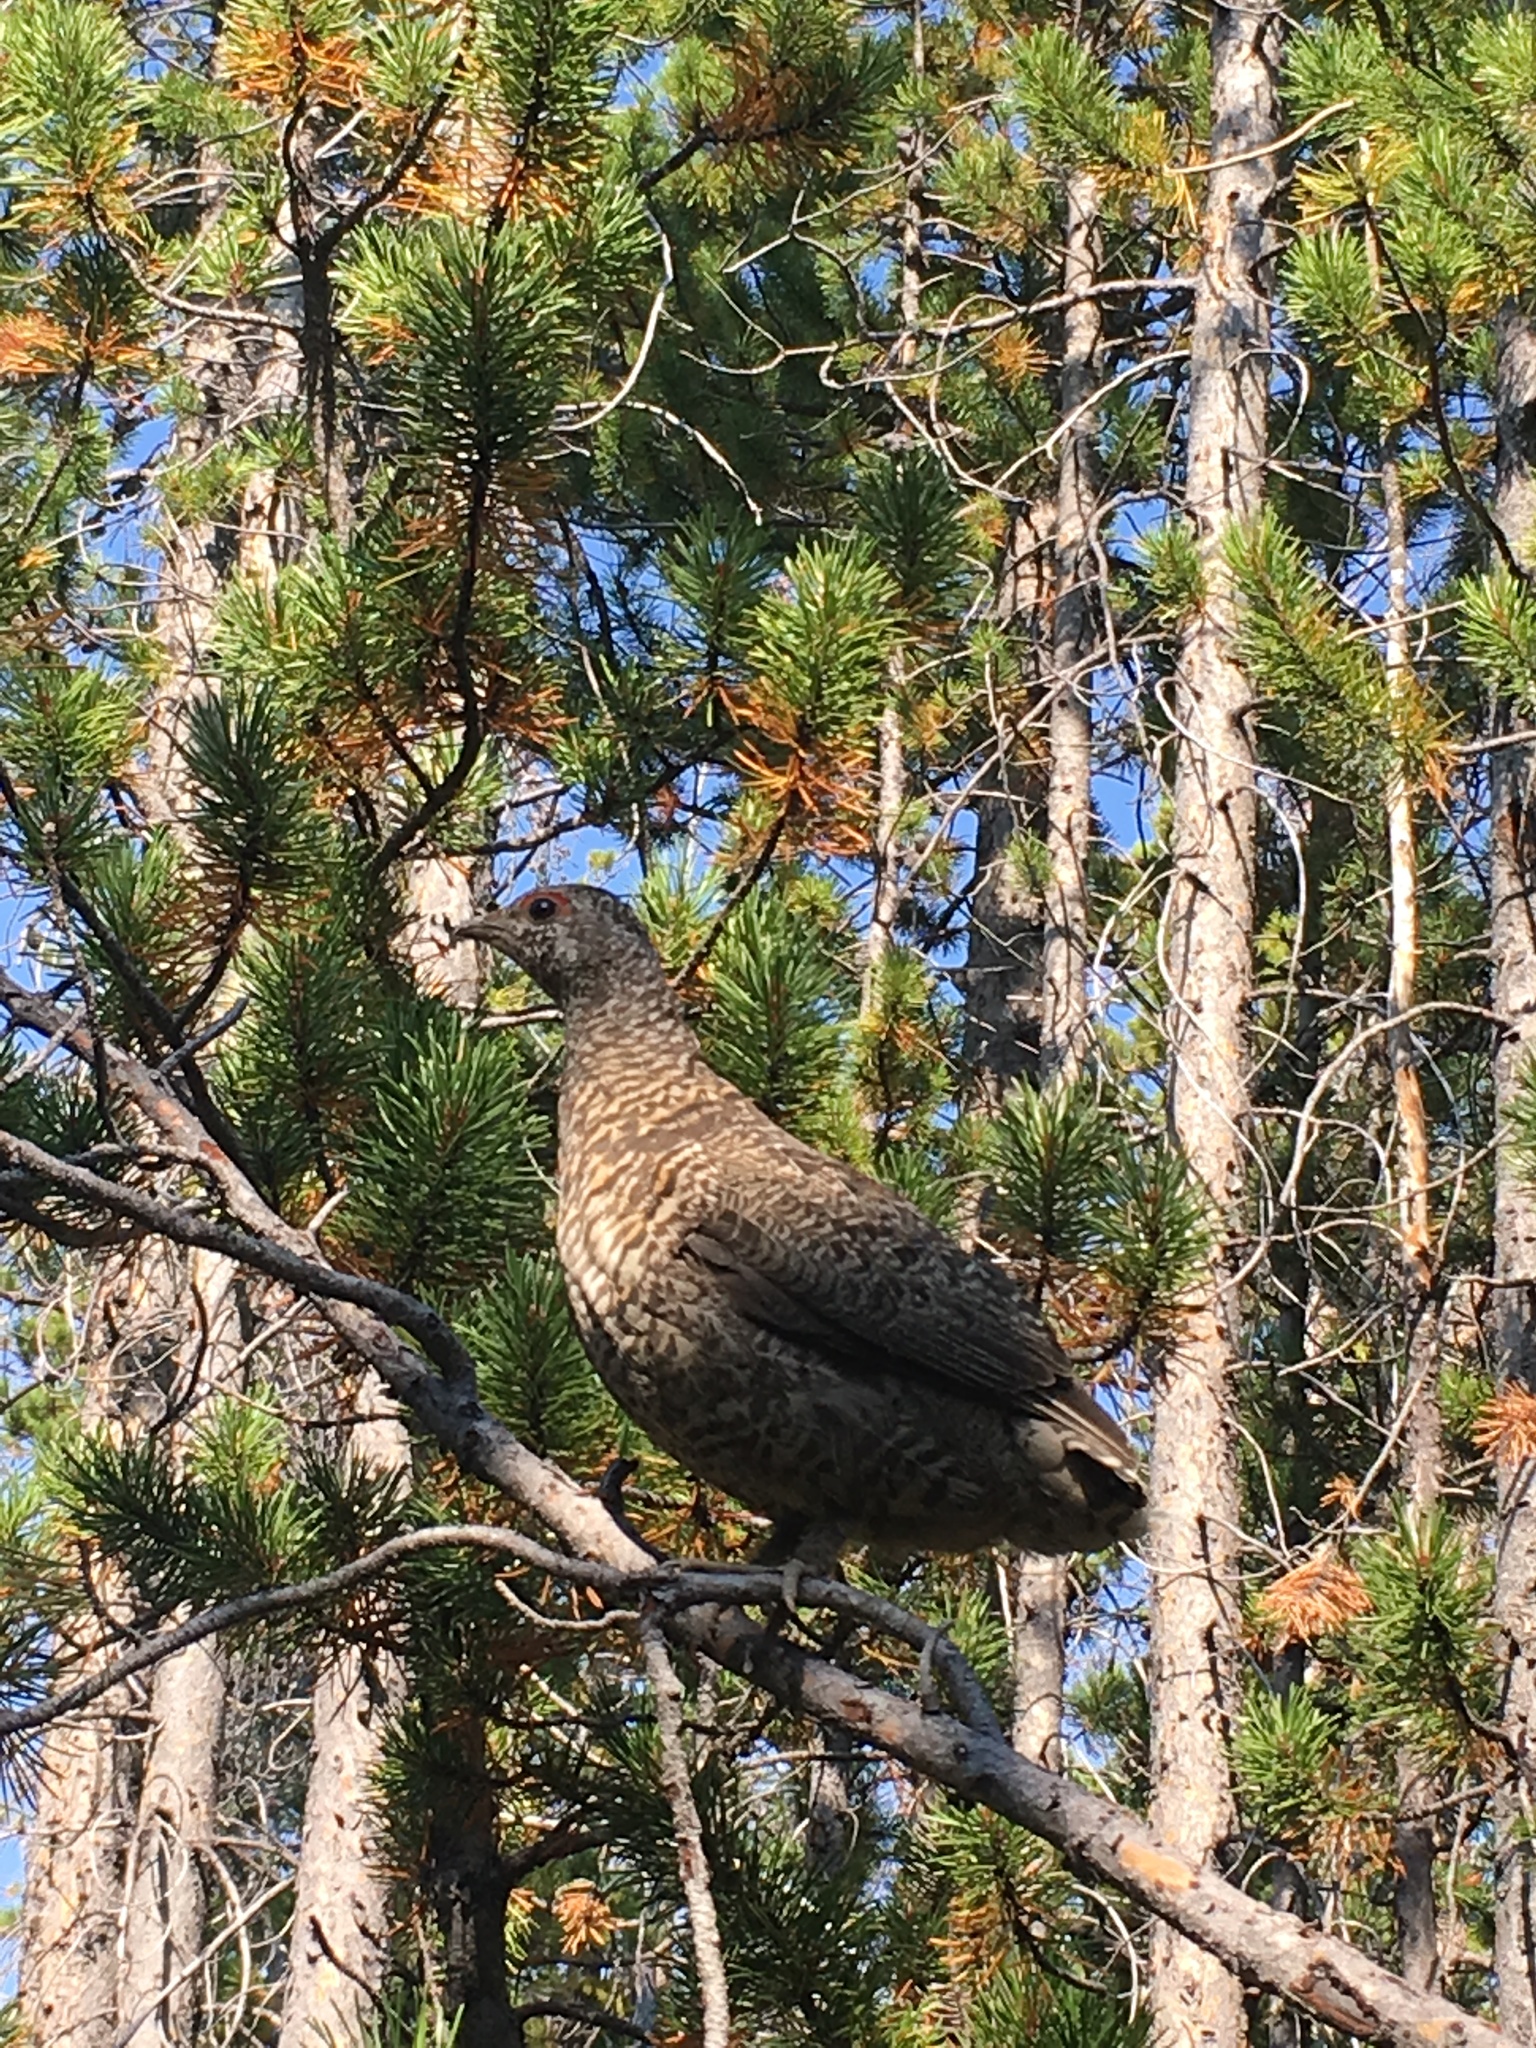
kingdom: Animalia
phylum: Chordata
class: Aves
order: Galliformes
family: Phasianidae
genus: Dendragapus
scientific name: Dendragapus obscurus
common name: Dusky grouse
